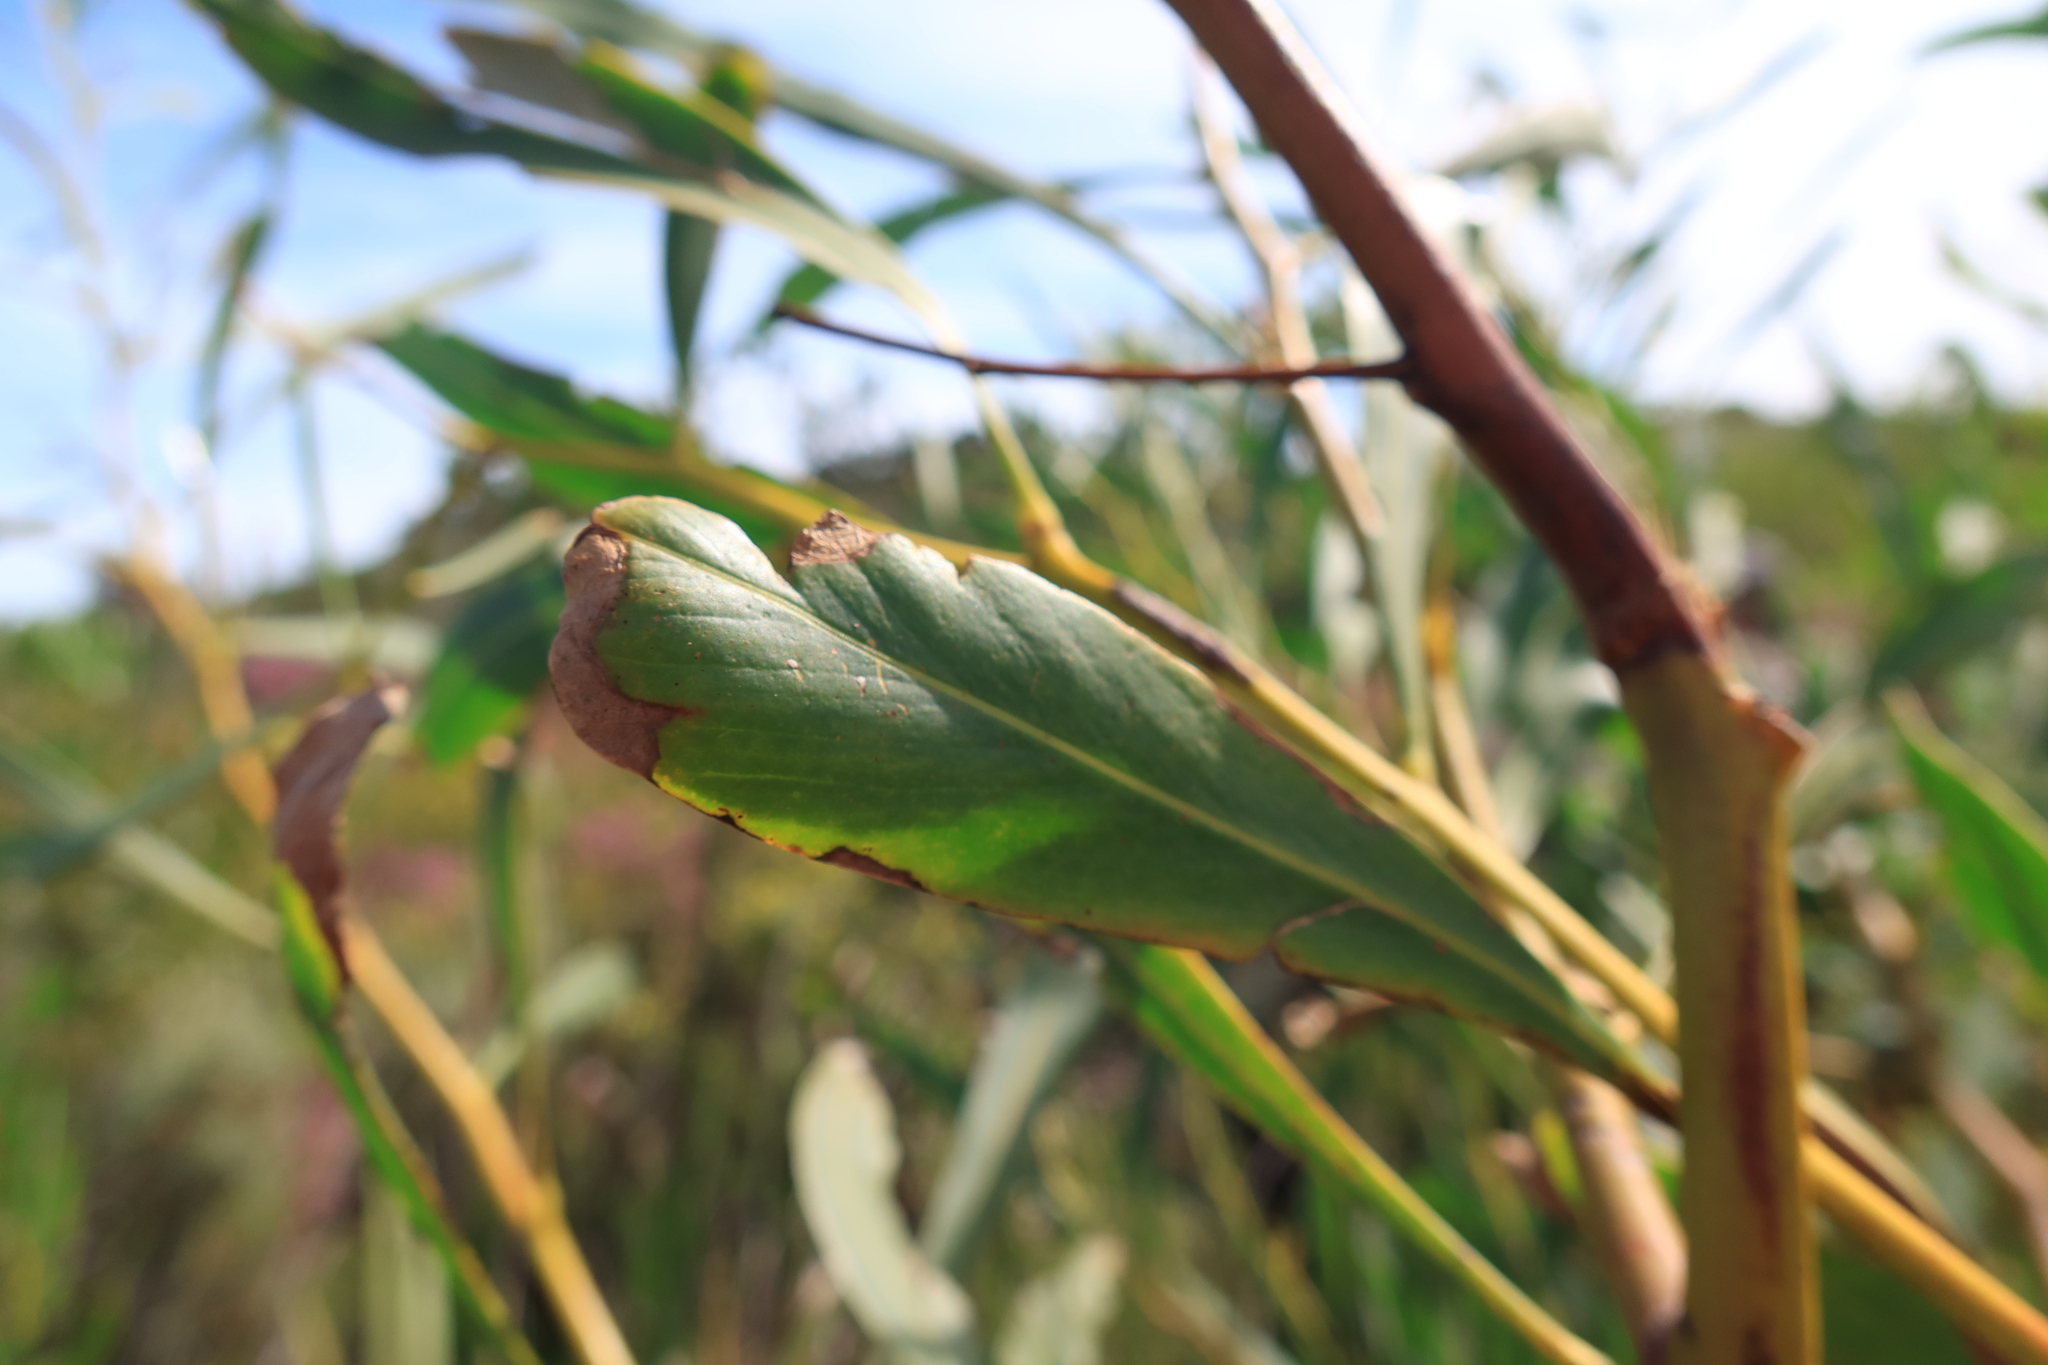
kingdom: Fungi
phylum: Basidiomycota
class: Pucciniomycetes
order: Pucciniales
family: Uromycladiaceae
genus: Uromycladium
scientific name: Uromycladium morrisii
